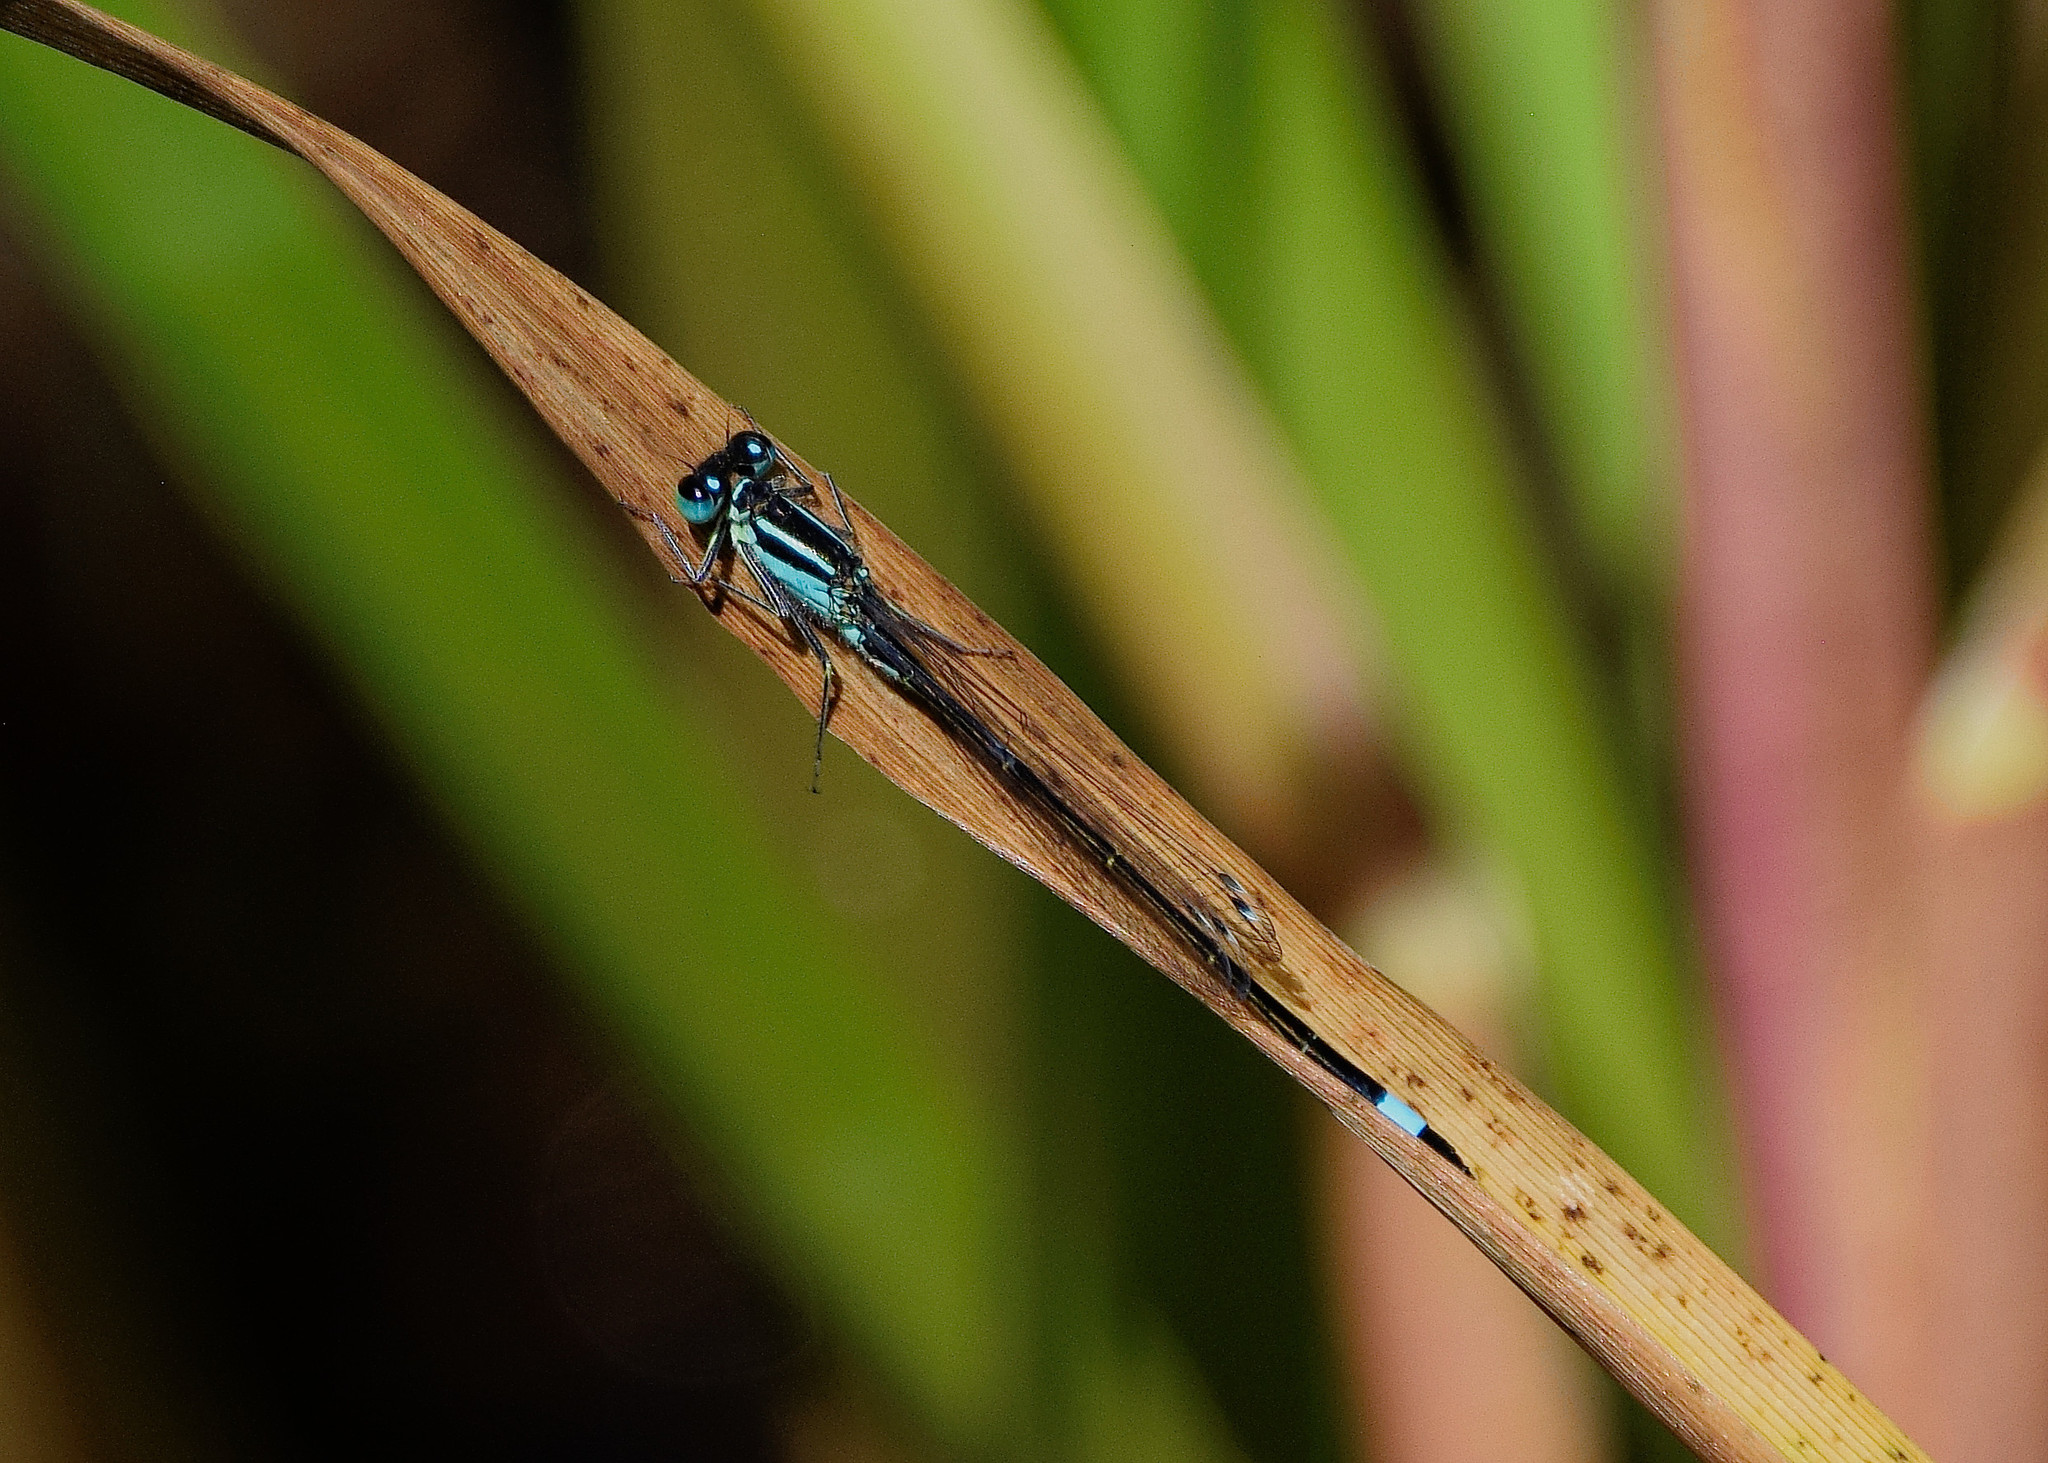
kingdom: Animalia
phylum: Arthropoda
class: Insecta
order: Odonata
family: Coenagrionidae
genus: Ischnura
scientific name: Ischnura elegans
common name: Blue-tailed damselfly
